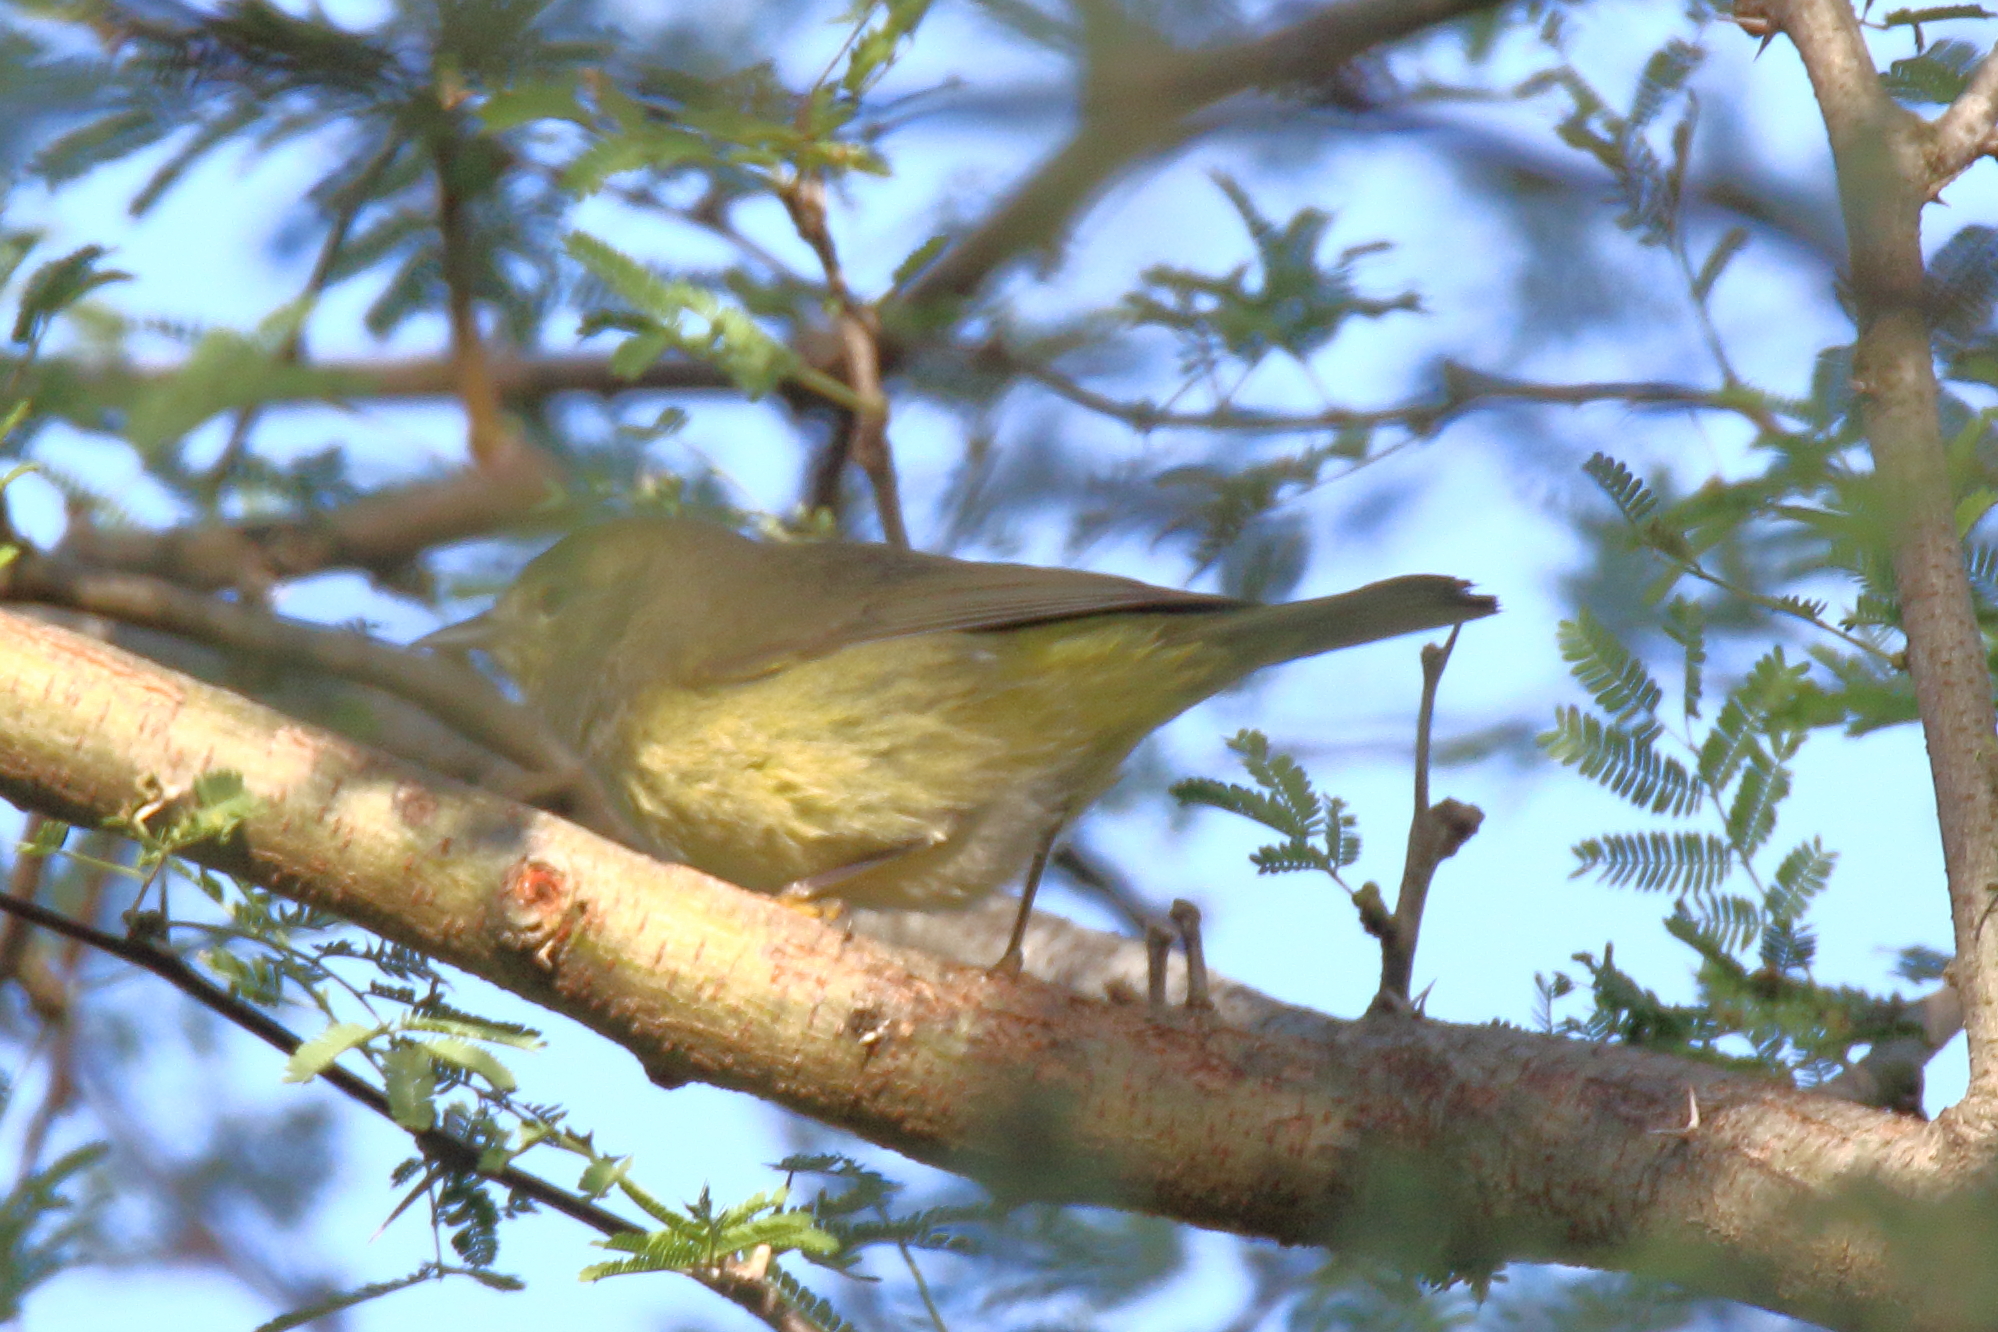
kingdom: Animalia
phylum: Chordata
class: Aves
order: Passeriformes
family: Parulidae
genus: Leiothlypis
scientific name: Leiothlypis celata
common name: Orange-crowned warbler
